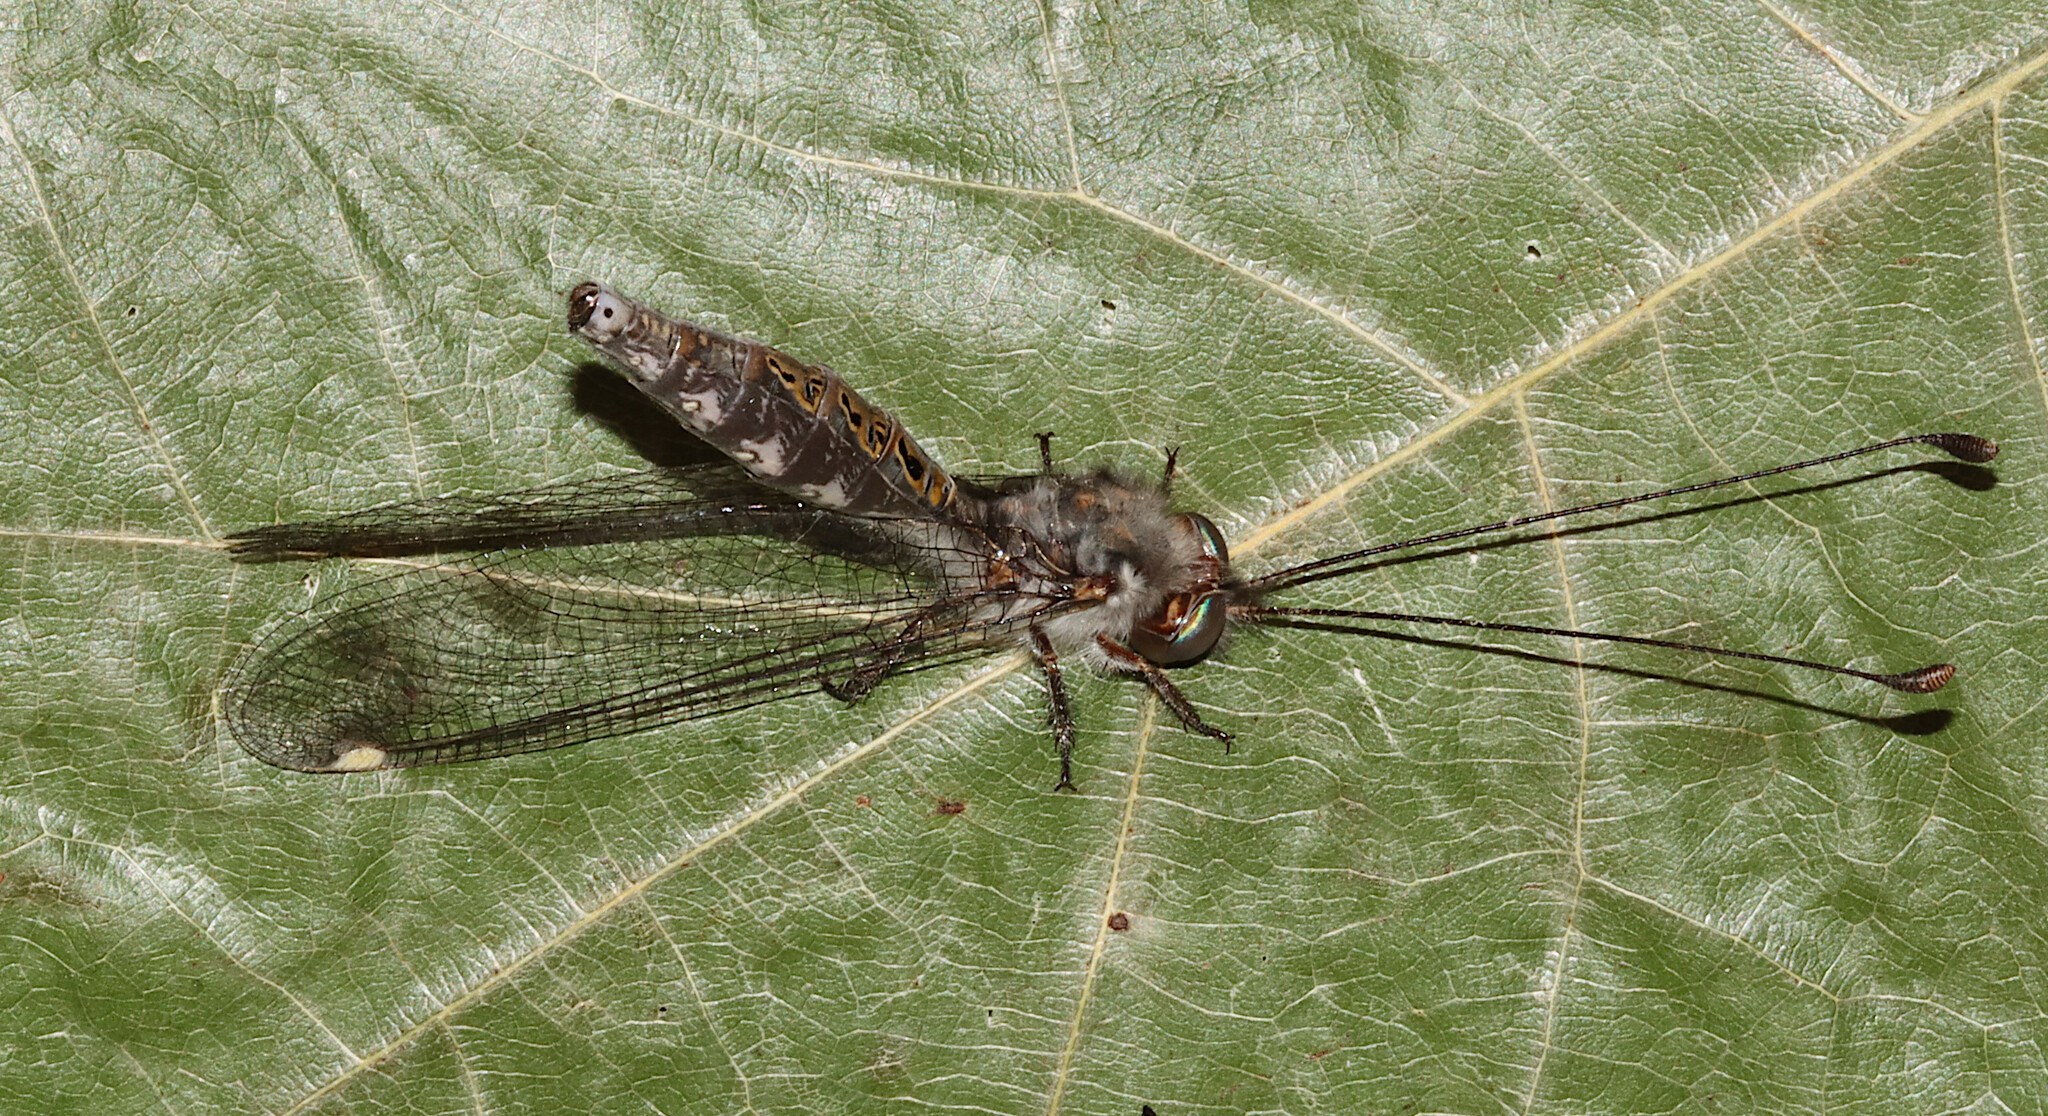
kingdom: Animalia
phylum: Arthropoda
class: Insecta
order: Neuroptera
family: Ascalaphidae
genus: Ululodes
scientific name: Ululodes quadripunctatus
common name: Four-spotted owlfly
